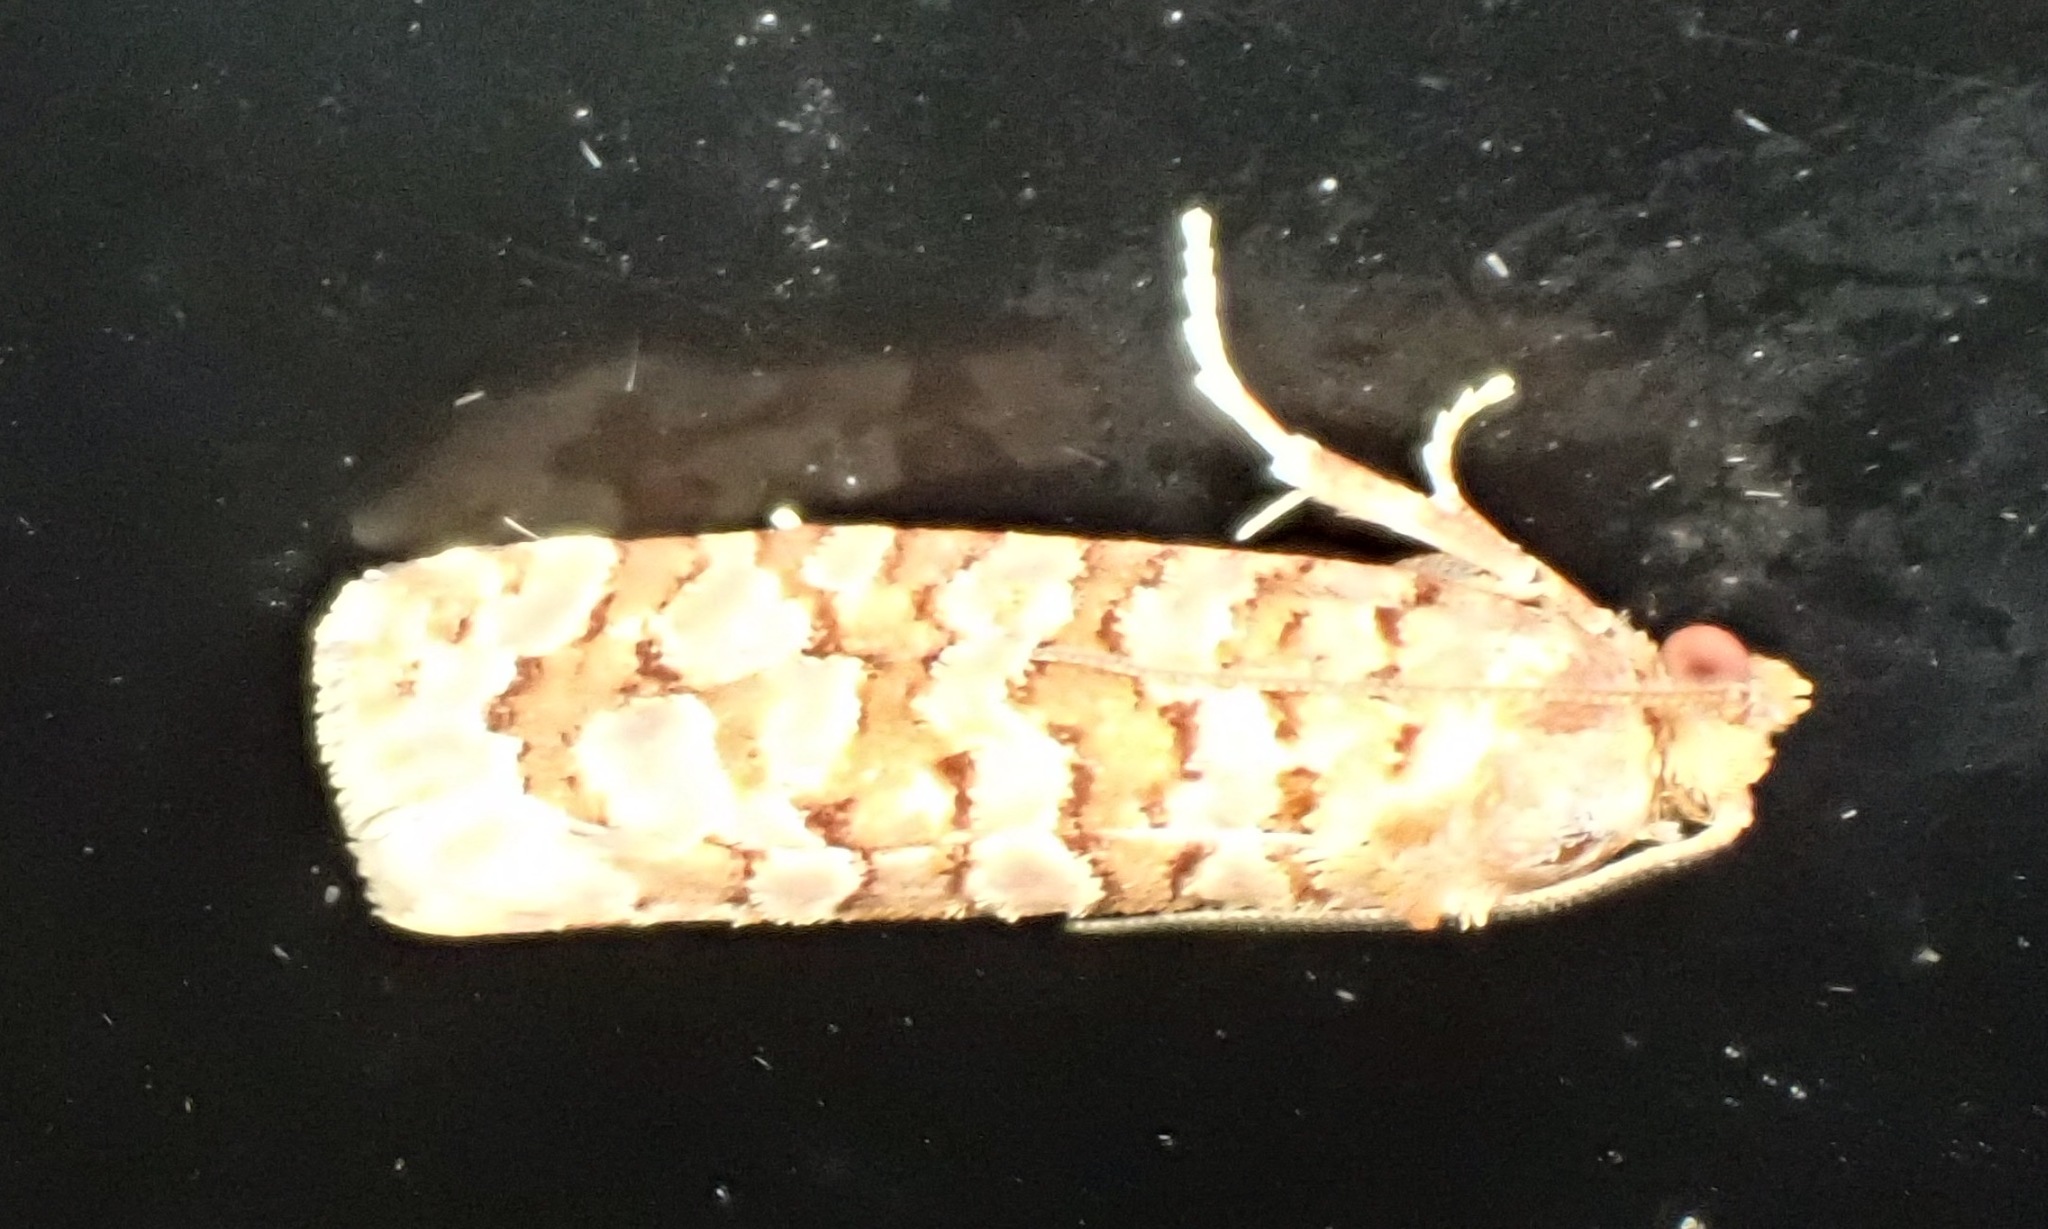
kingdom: Animalia
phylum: Arthropoda
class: Insecta
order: Lepidoptera
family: Tortricidae
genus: Lozotaeniodes
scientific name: Lozotaeniodes formosana
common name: Orange pine twist
